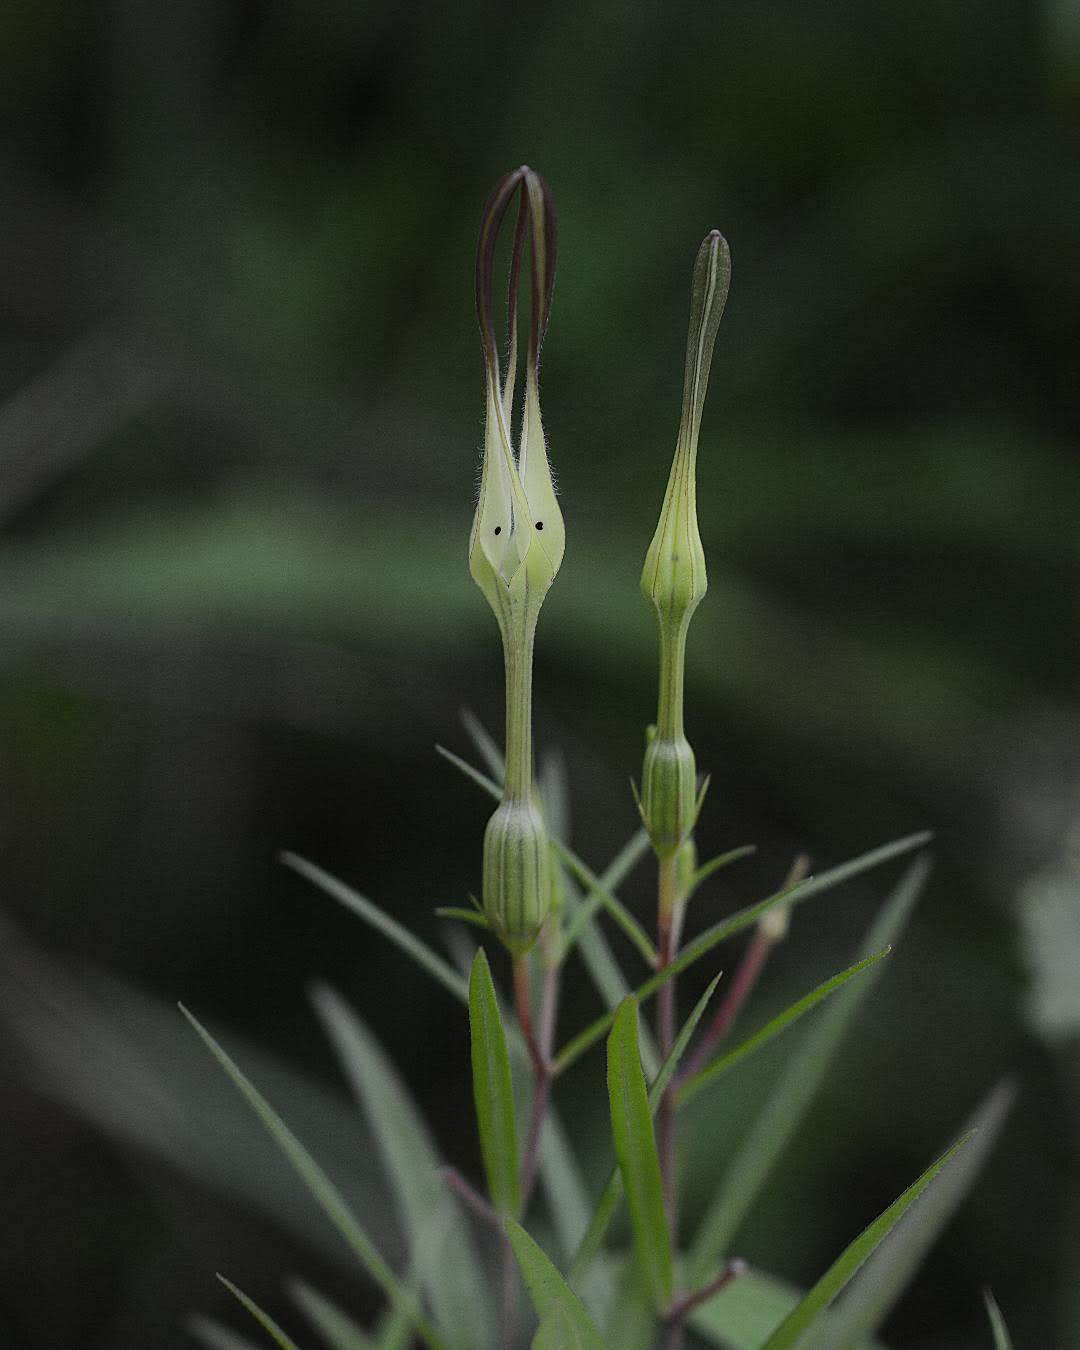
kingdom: Plantae
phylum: Tracheophyta
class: Magnoliopsida
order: Gentianales
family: Apocynaceae
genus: Ceropegia
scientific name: Ceropegia attenuata
